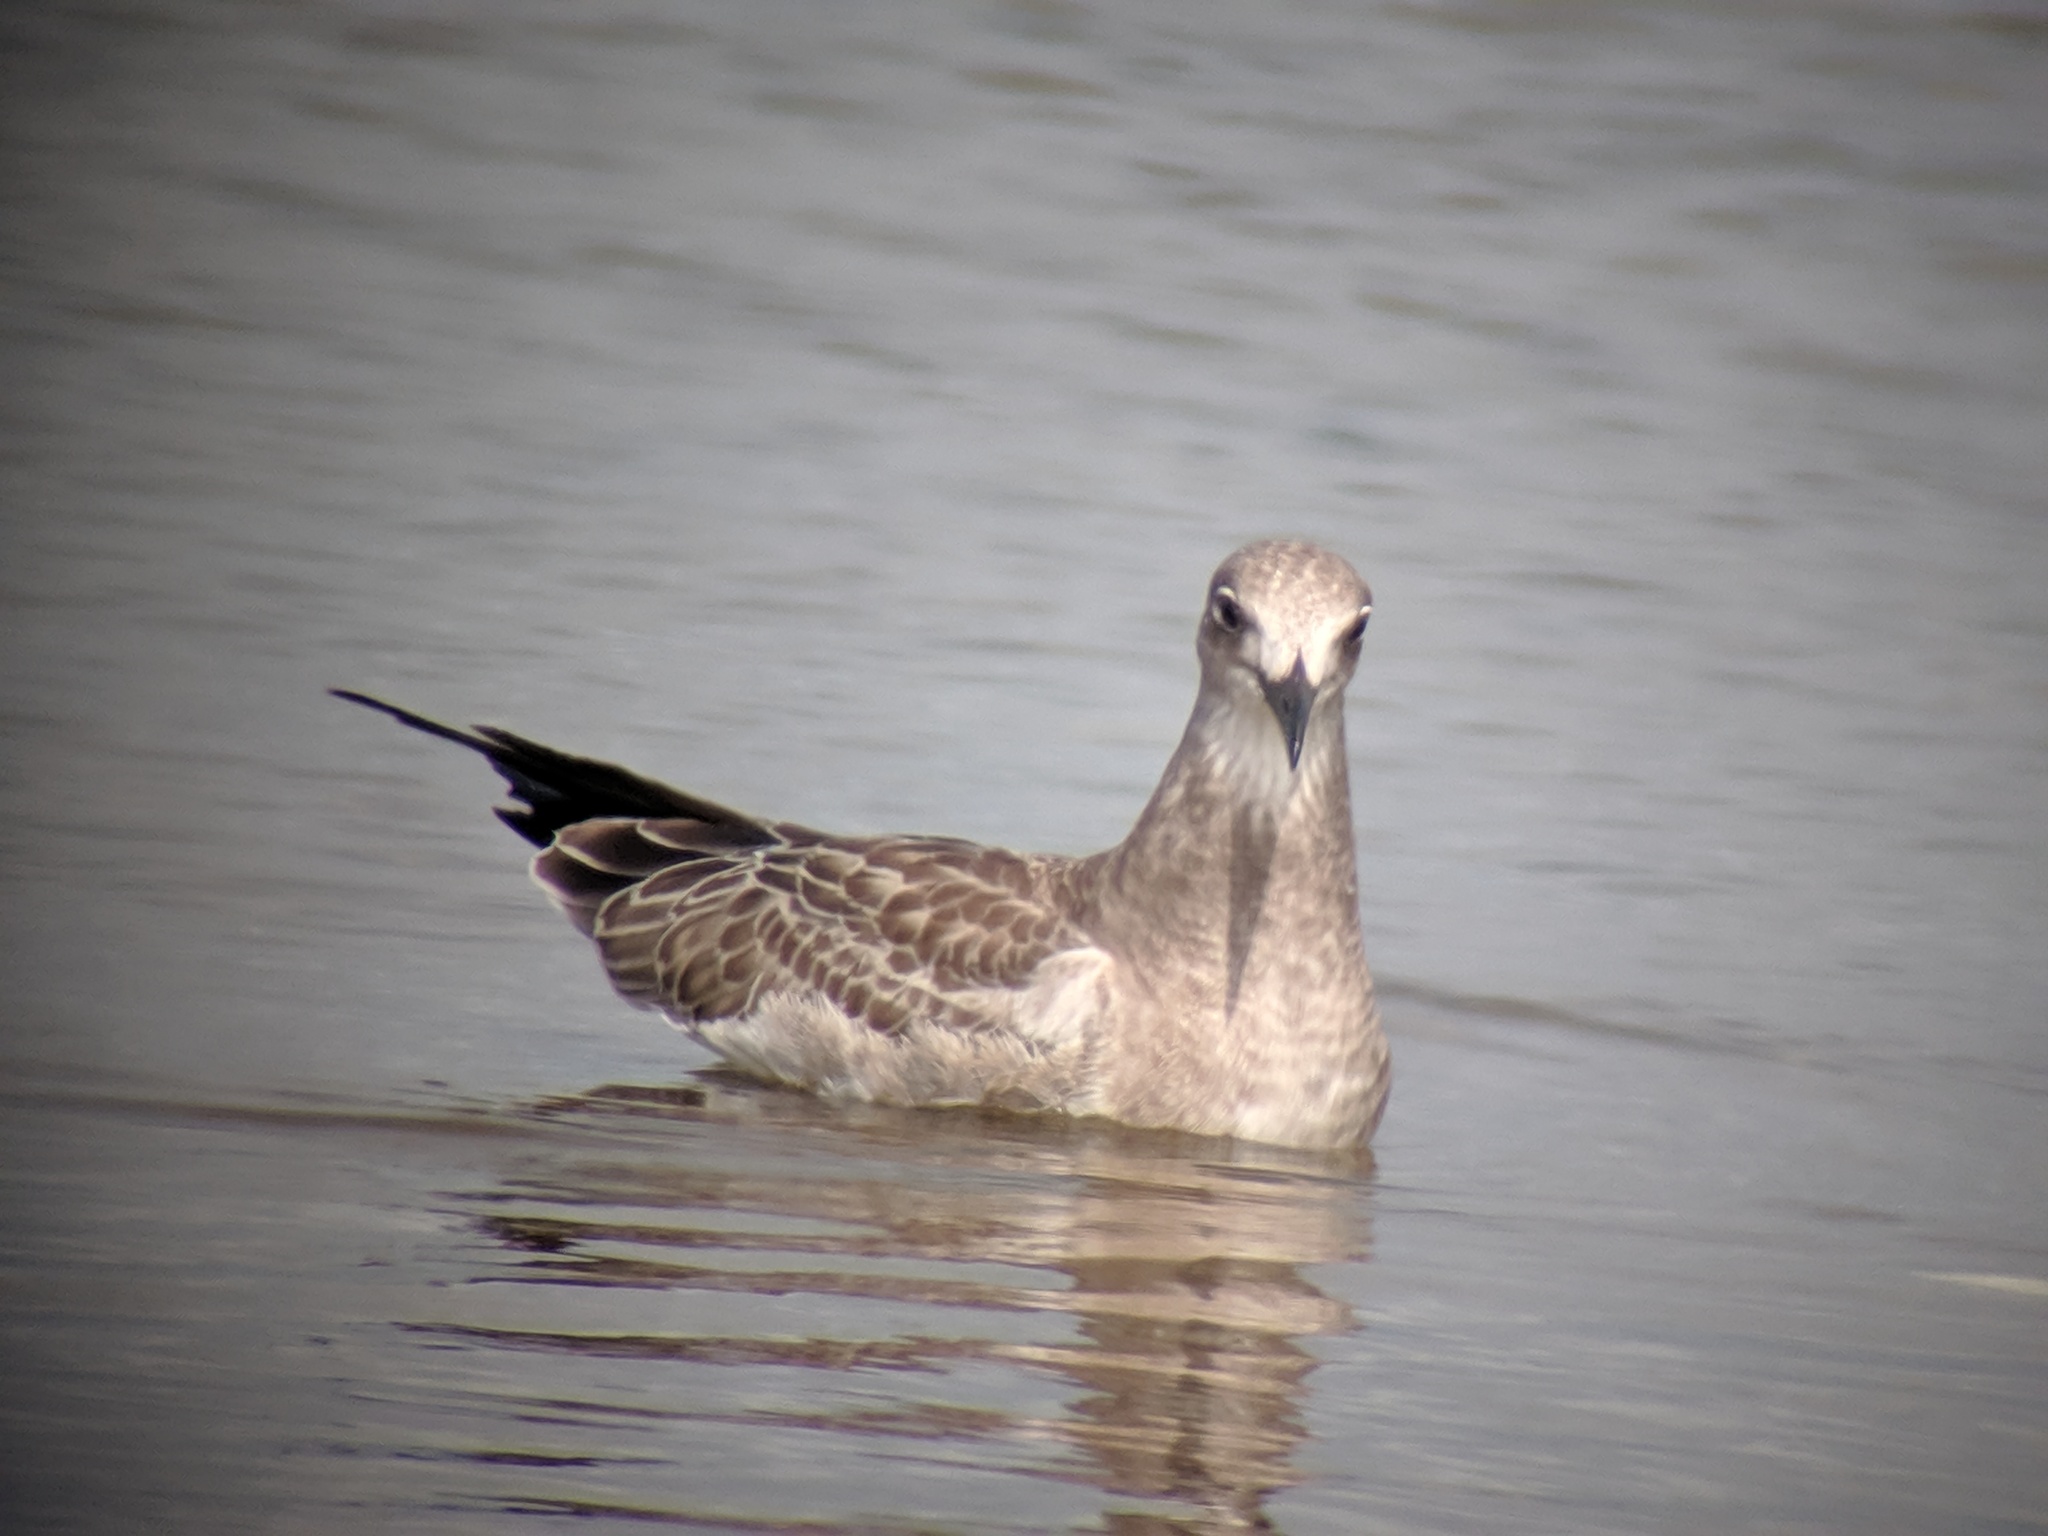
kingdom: Animalia
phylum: Chordata
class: Aves
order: Charadriiformes
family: Laridae
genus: Leucophaeus
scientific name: Leucophaeus atricilla
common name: Laughing gull
